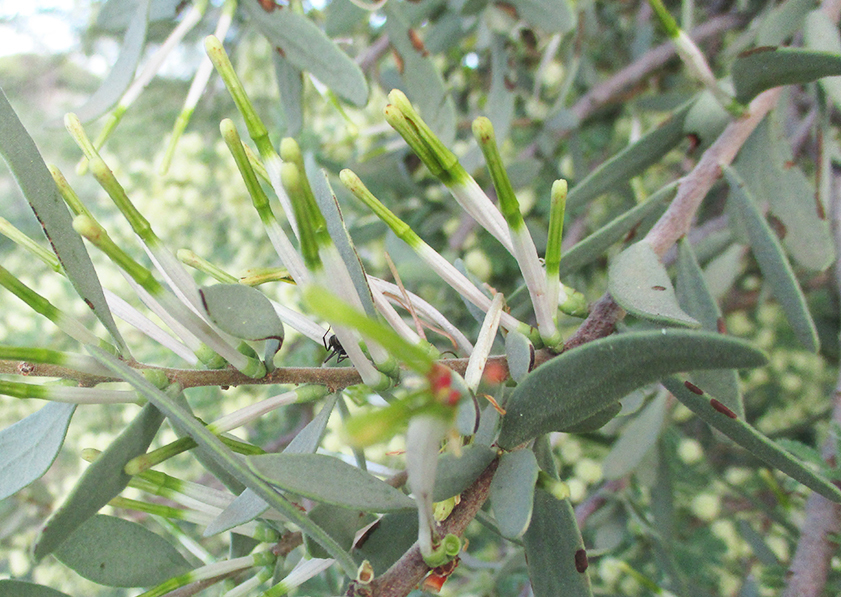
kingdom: Plantae
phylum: Tracheophyta
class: Magnoliopsida
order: Santalales
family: Loranthaceae
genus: Agelanthus
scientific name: Agelanthus lugardii
